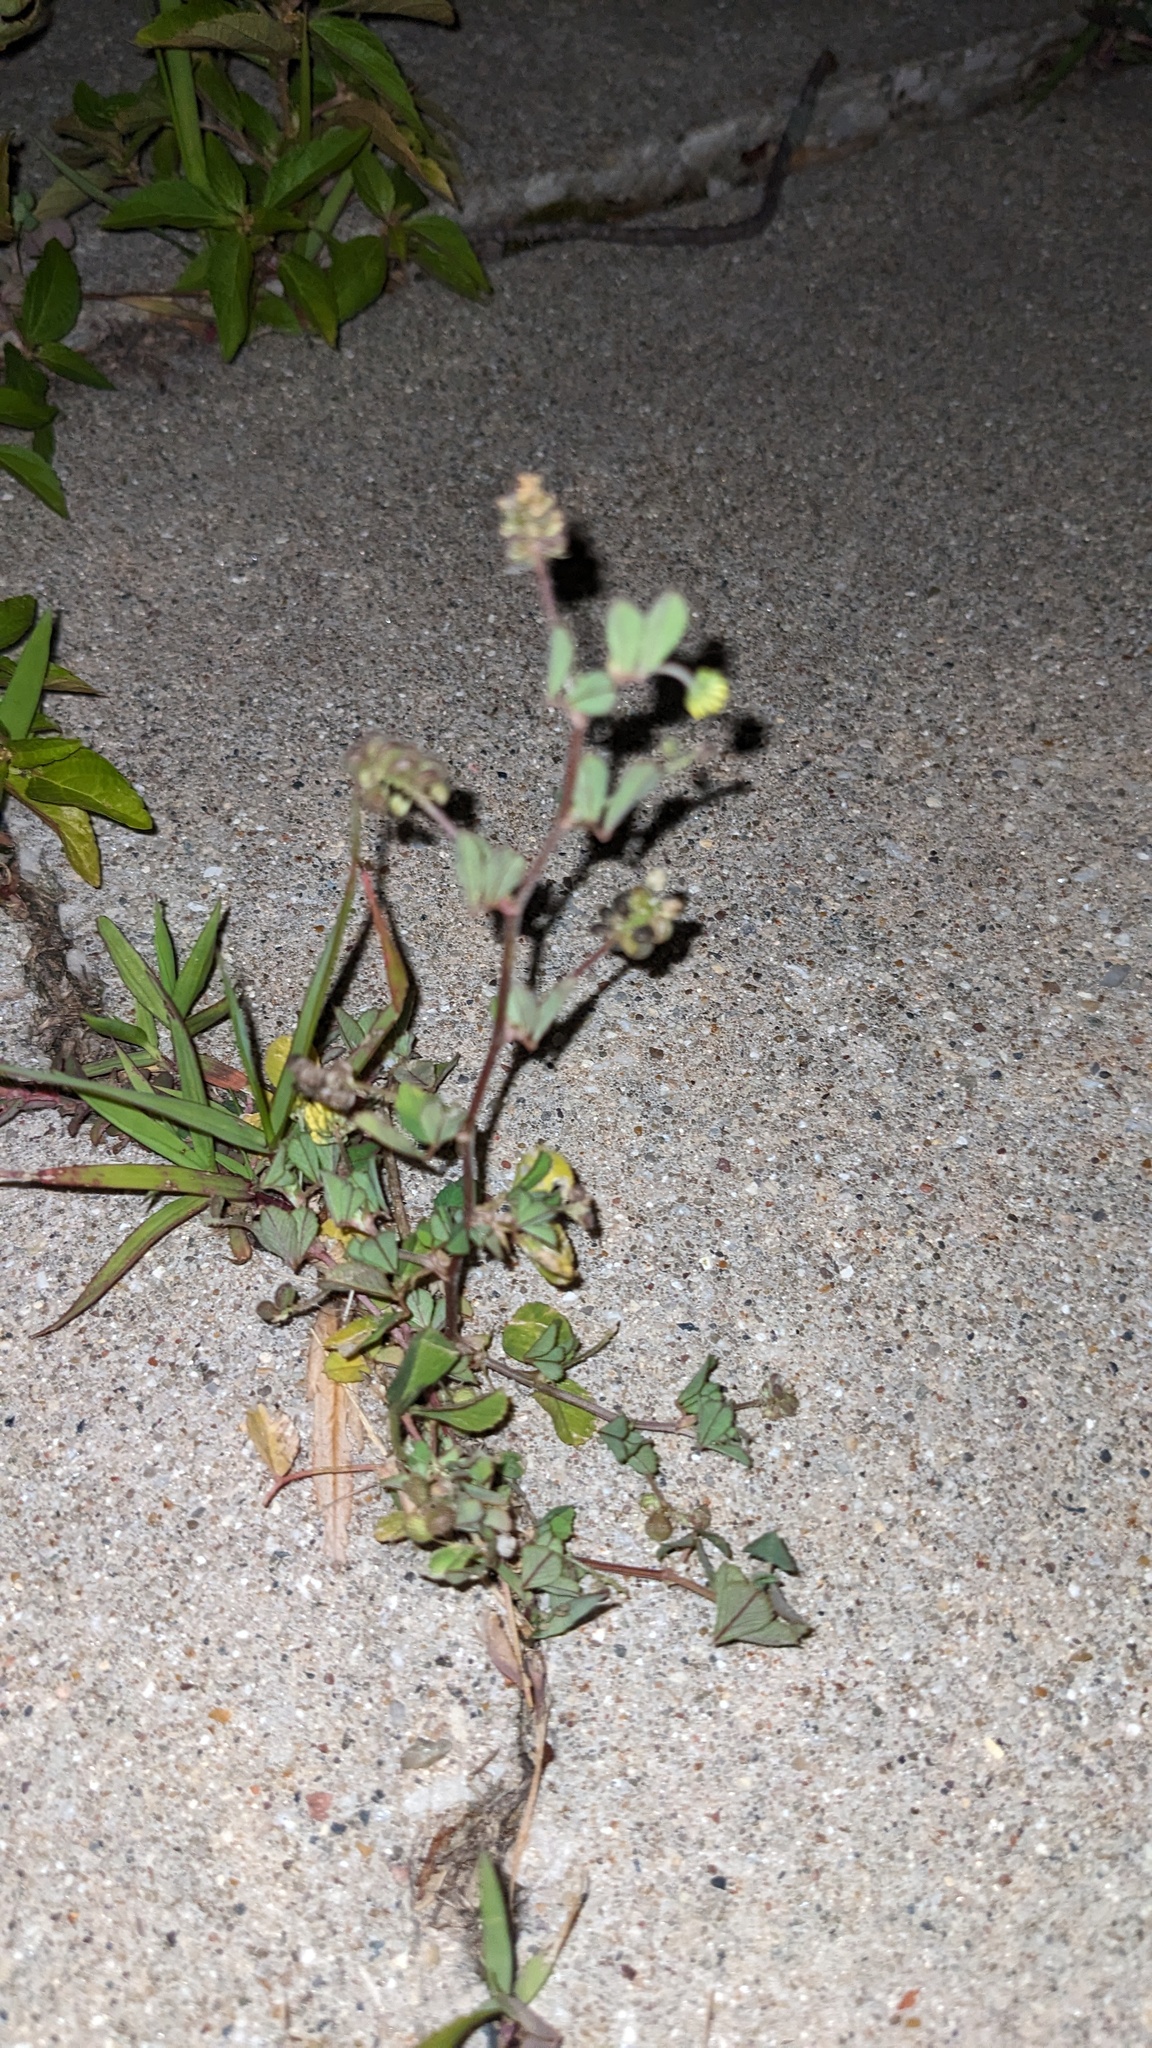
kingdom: Plantae
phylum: Tracheophyta
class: Magnoliopsida
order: Fabales
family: Fabaceae
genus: Medicago
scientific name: Medicago lupulina
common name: Black medick
